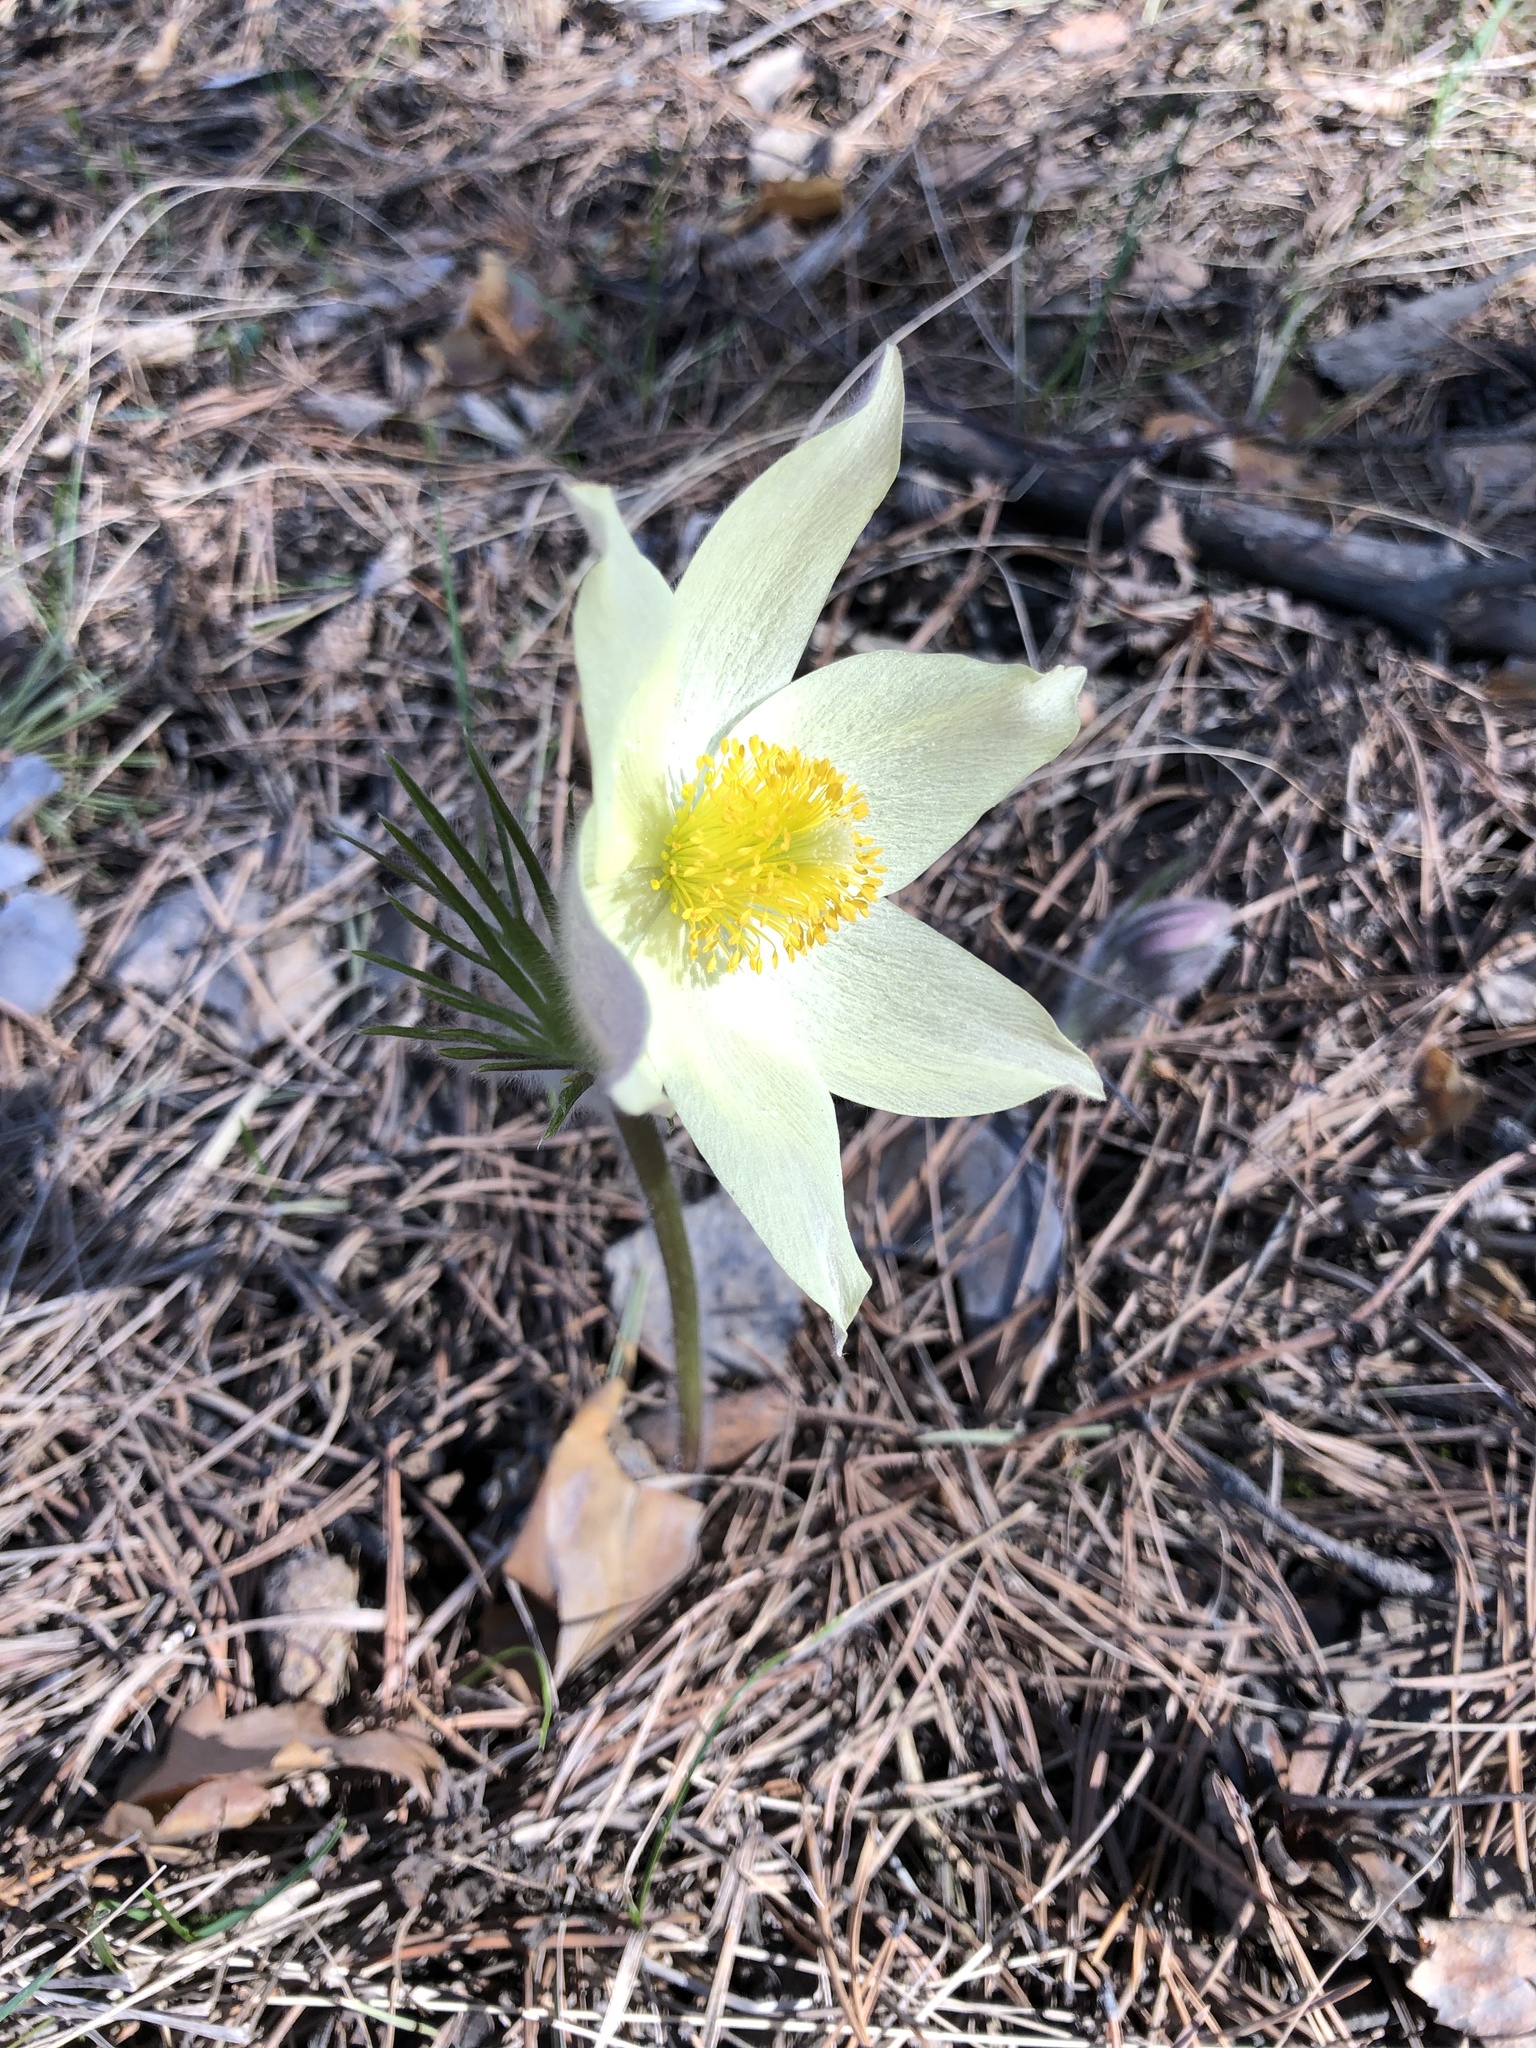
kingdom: Plantae
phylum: Tracheophyta
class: Magnoliopsida
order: Ranunculales
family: Ranunculaceae
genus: Pulsatilla
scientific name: Pulsatilla patens
